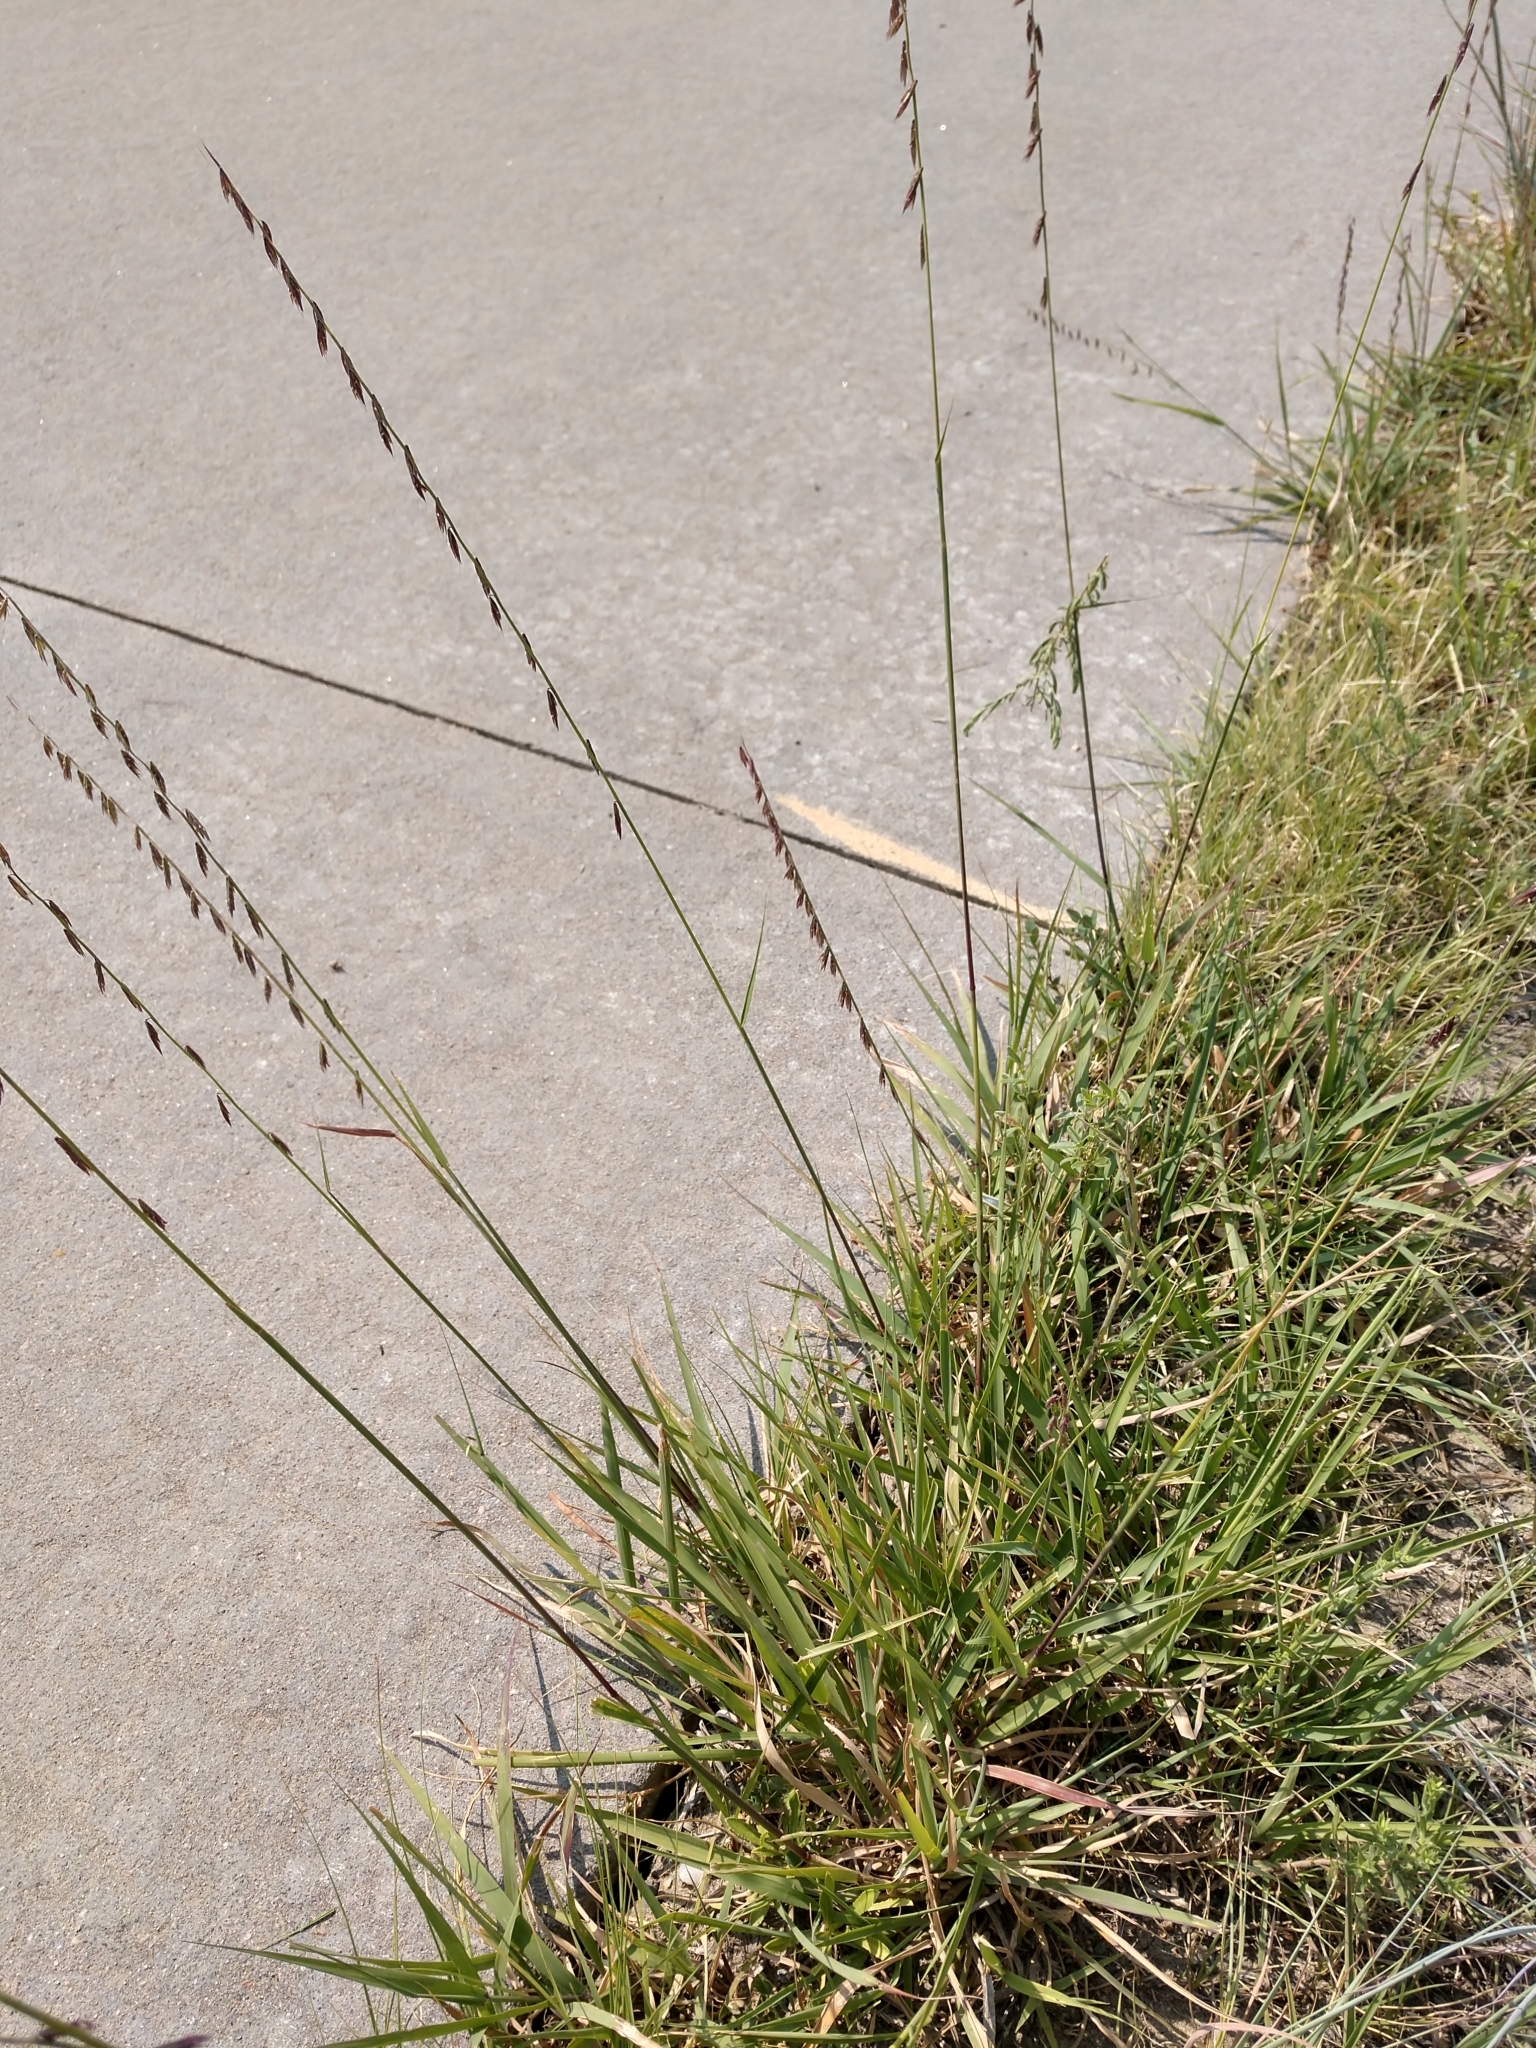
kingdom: Plantae
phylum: Tracheophyta
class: Liliopsida
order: Poales
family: Poaceae
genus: Bouteloua
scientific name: Bouteloua curtipendula
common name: Side-oats grama
